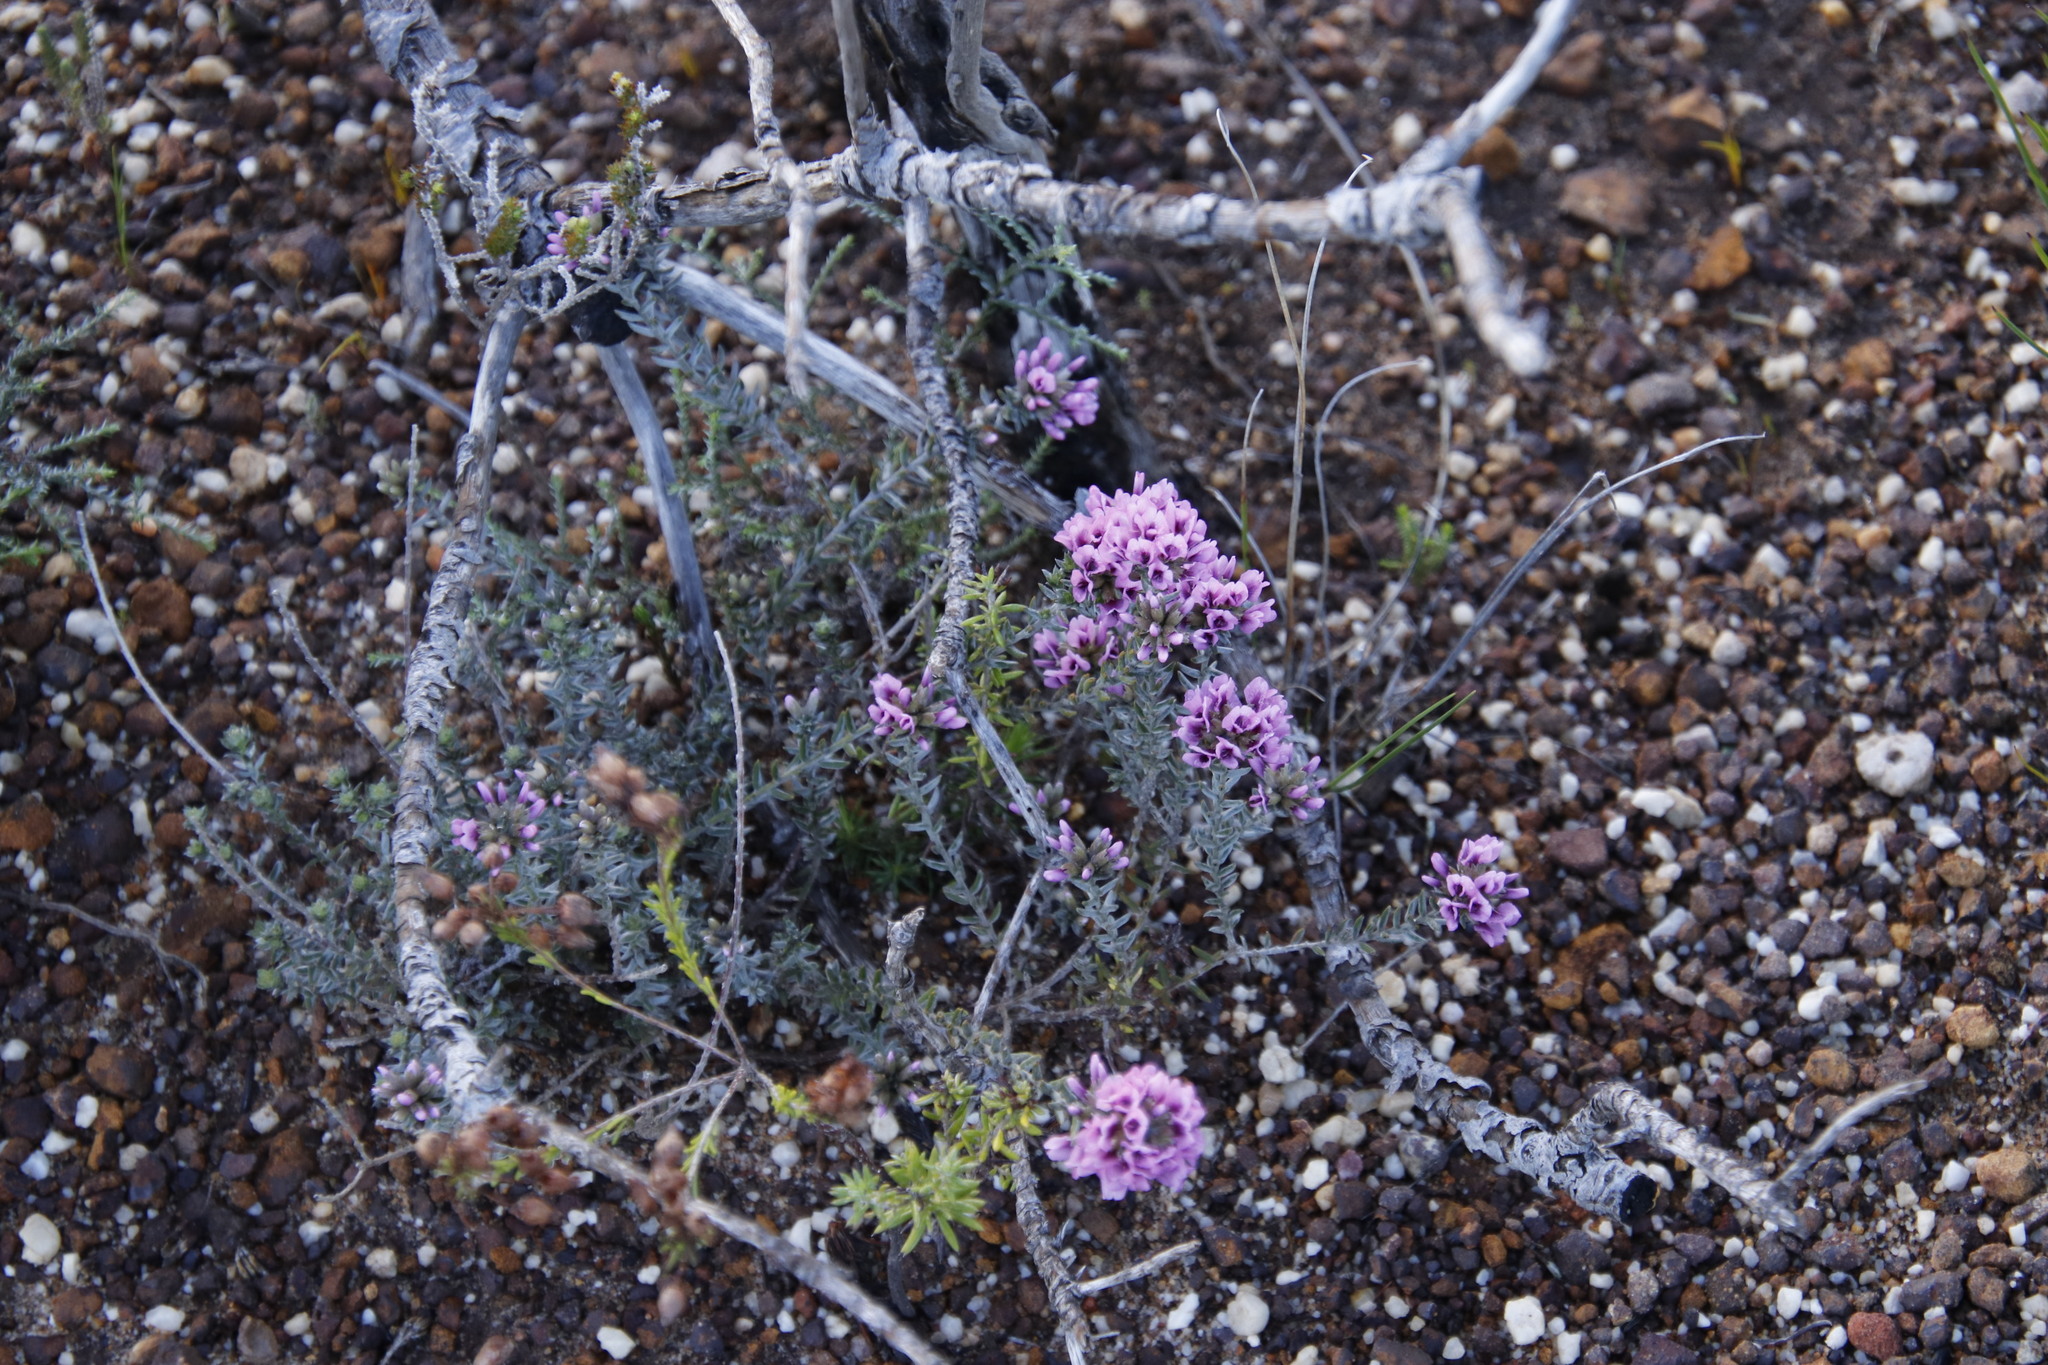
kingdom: Plantae
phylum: Tracheophyta
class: Magnoliopsida
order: Fabales
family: Fabaceae
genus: Amphithalea
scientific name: Amphithalea ericifolia
